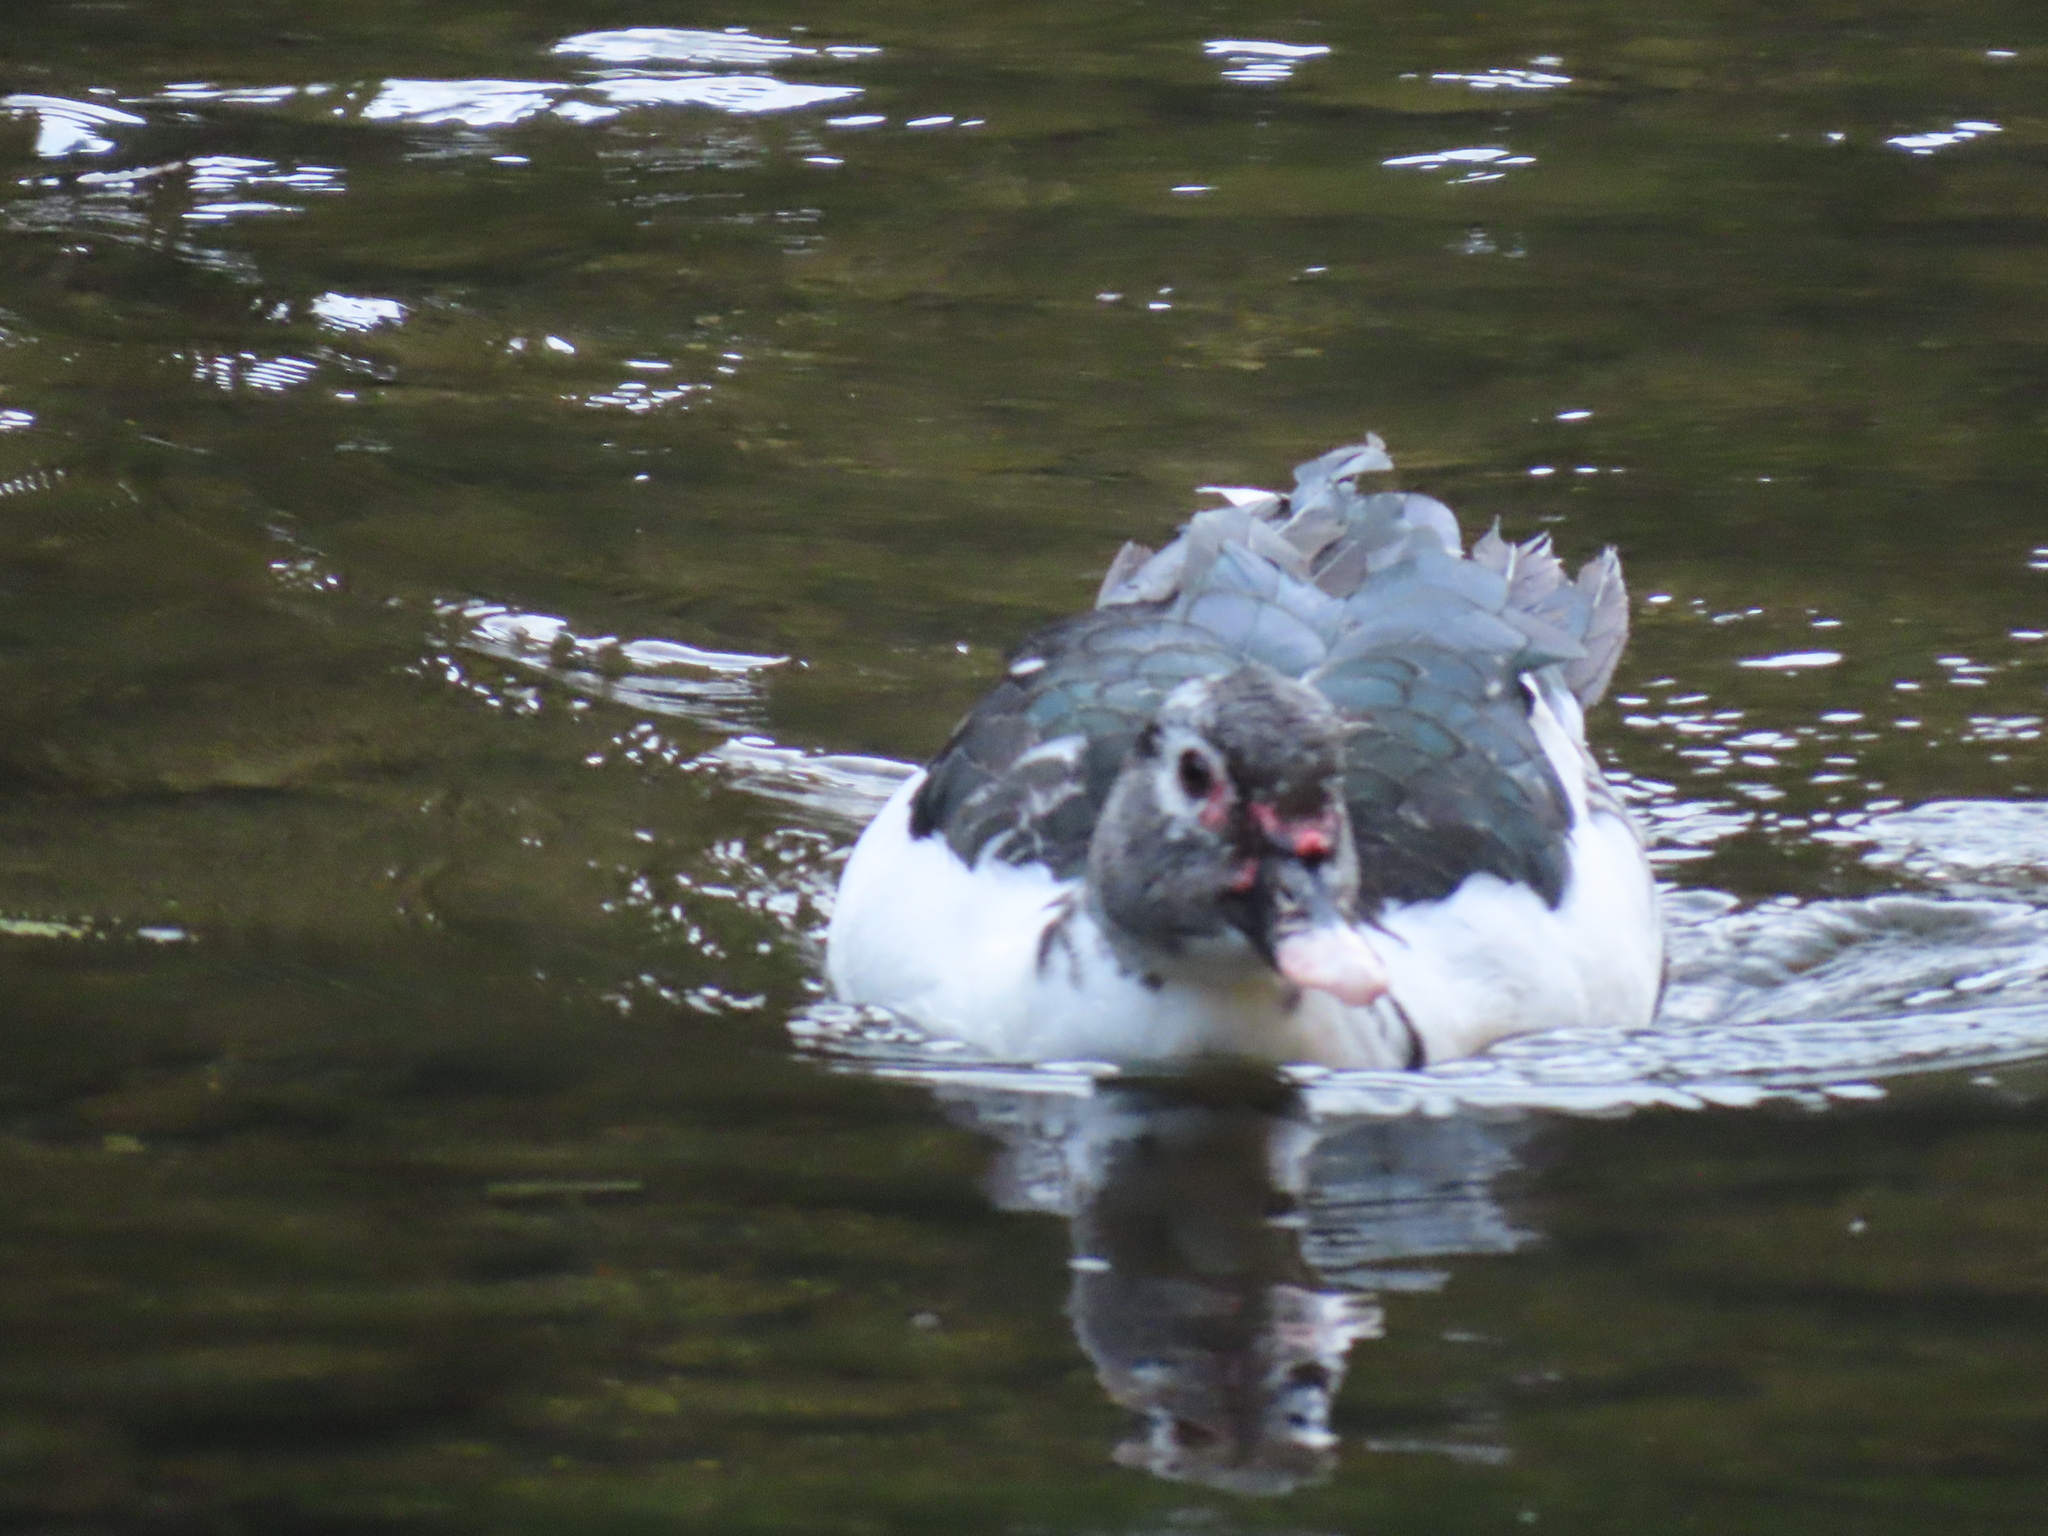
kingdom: Animalia
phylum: Chordata
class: Aves
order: Anseriformes
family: Anatidae
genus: Cairina
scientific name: Cairina moschata
